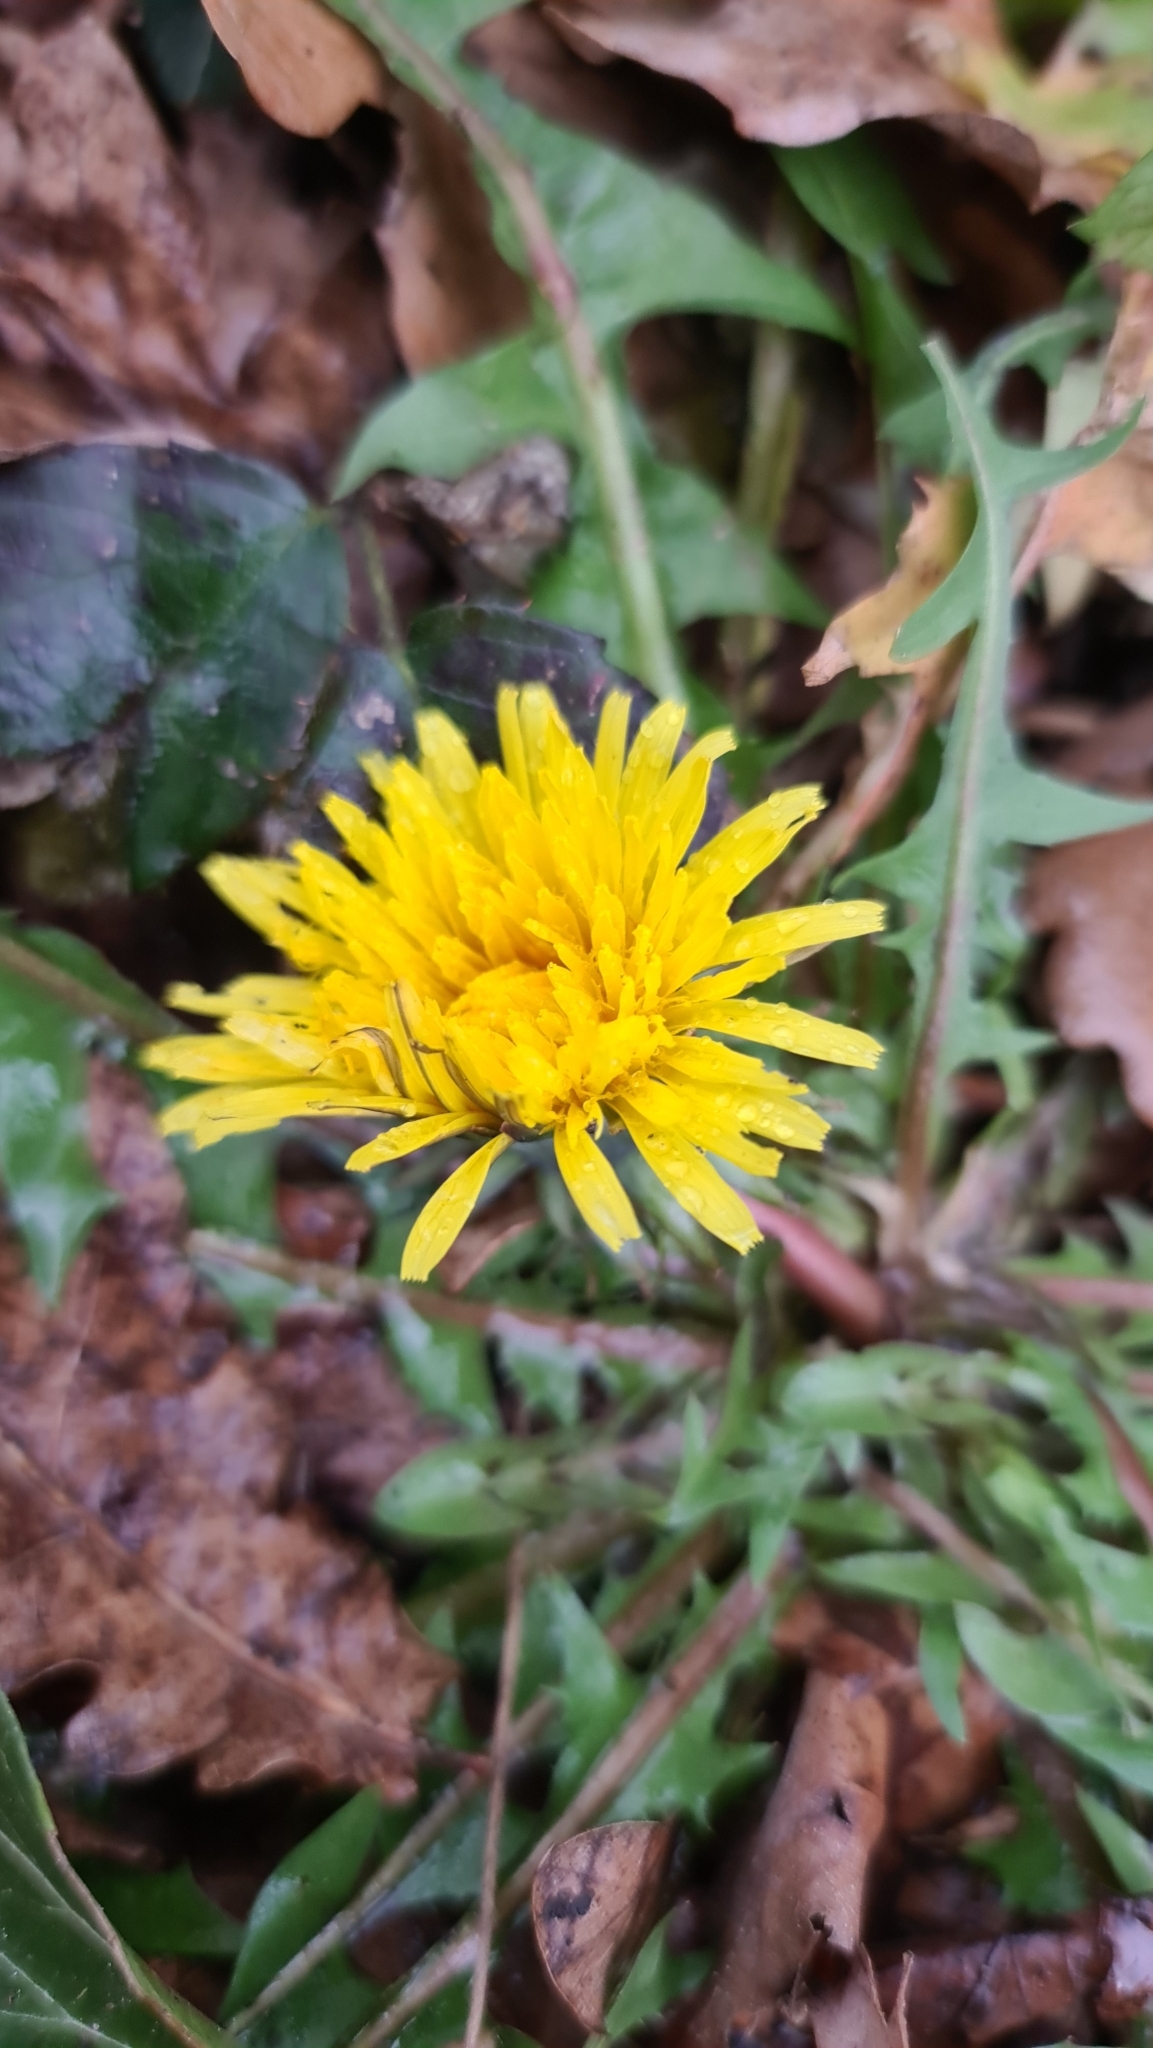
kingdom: Plantae
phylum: Tracheophyta
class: Magnoliopsida
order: Asterales
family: Asteraceae
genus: Taraxacum
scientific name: Taraxacum officinale
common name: Common dandelion
